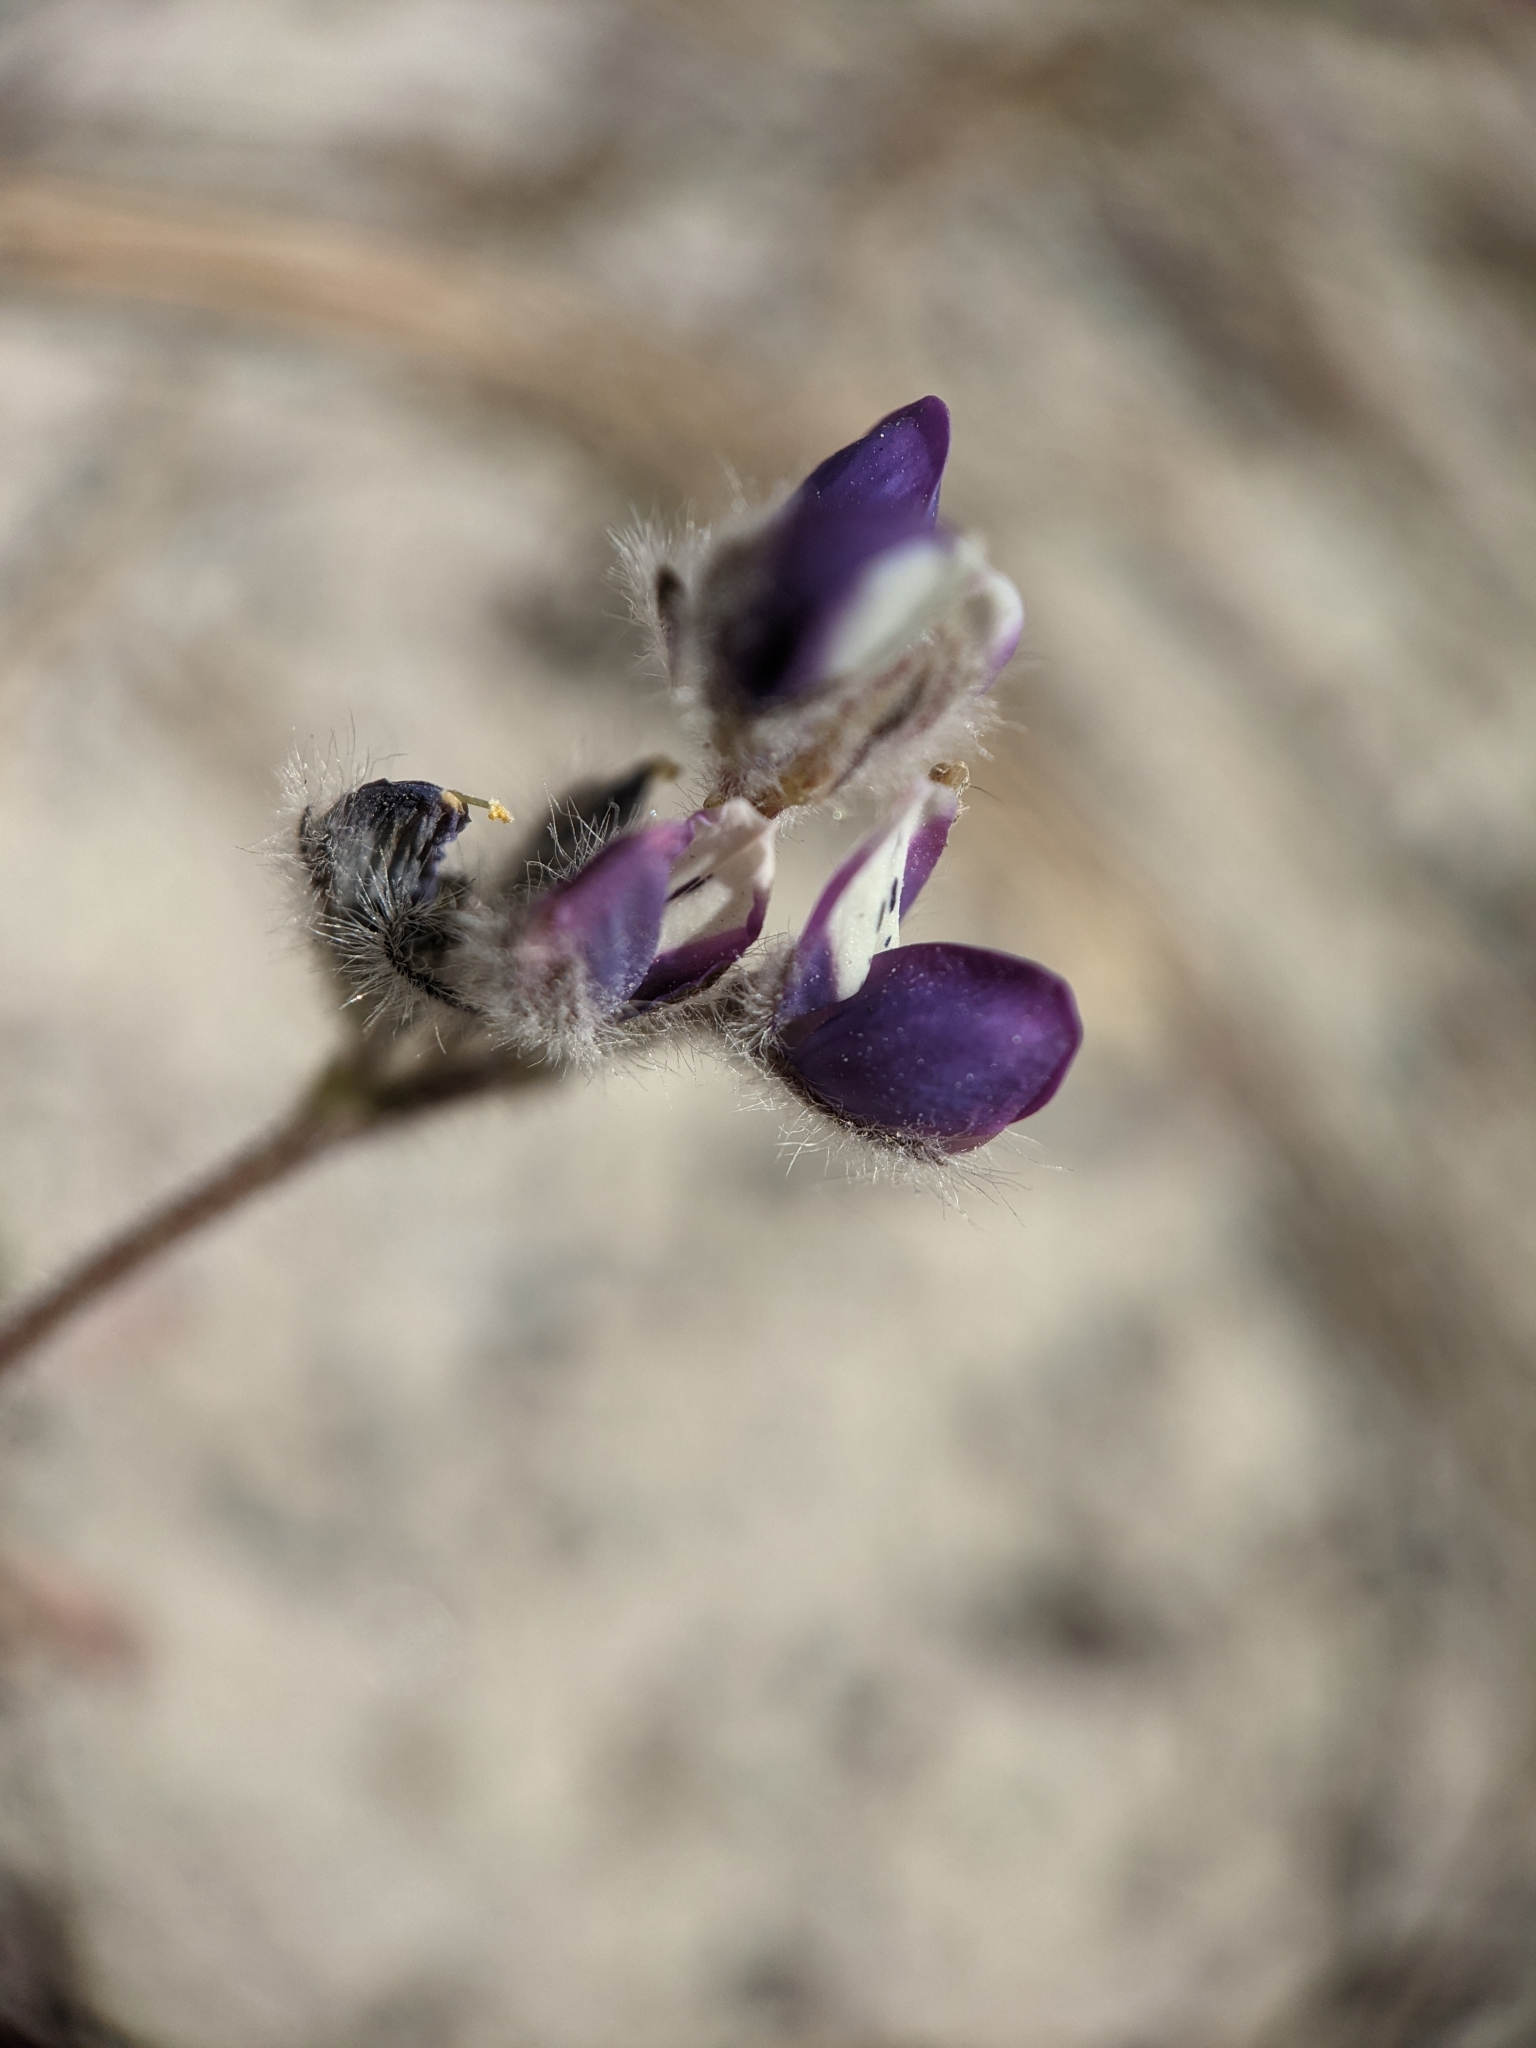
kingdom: Plantae
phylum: Tracheophyta
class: Magnoliopsida
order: Fabales
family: Fabaceae
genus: Lupinus
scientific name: Lupinus bicolor
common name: Miniature lupine
